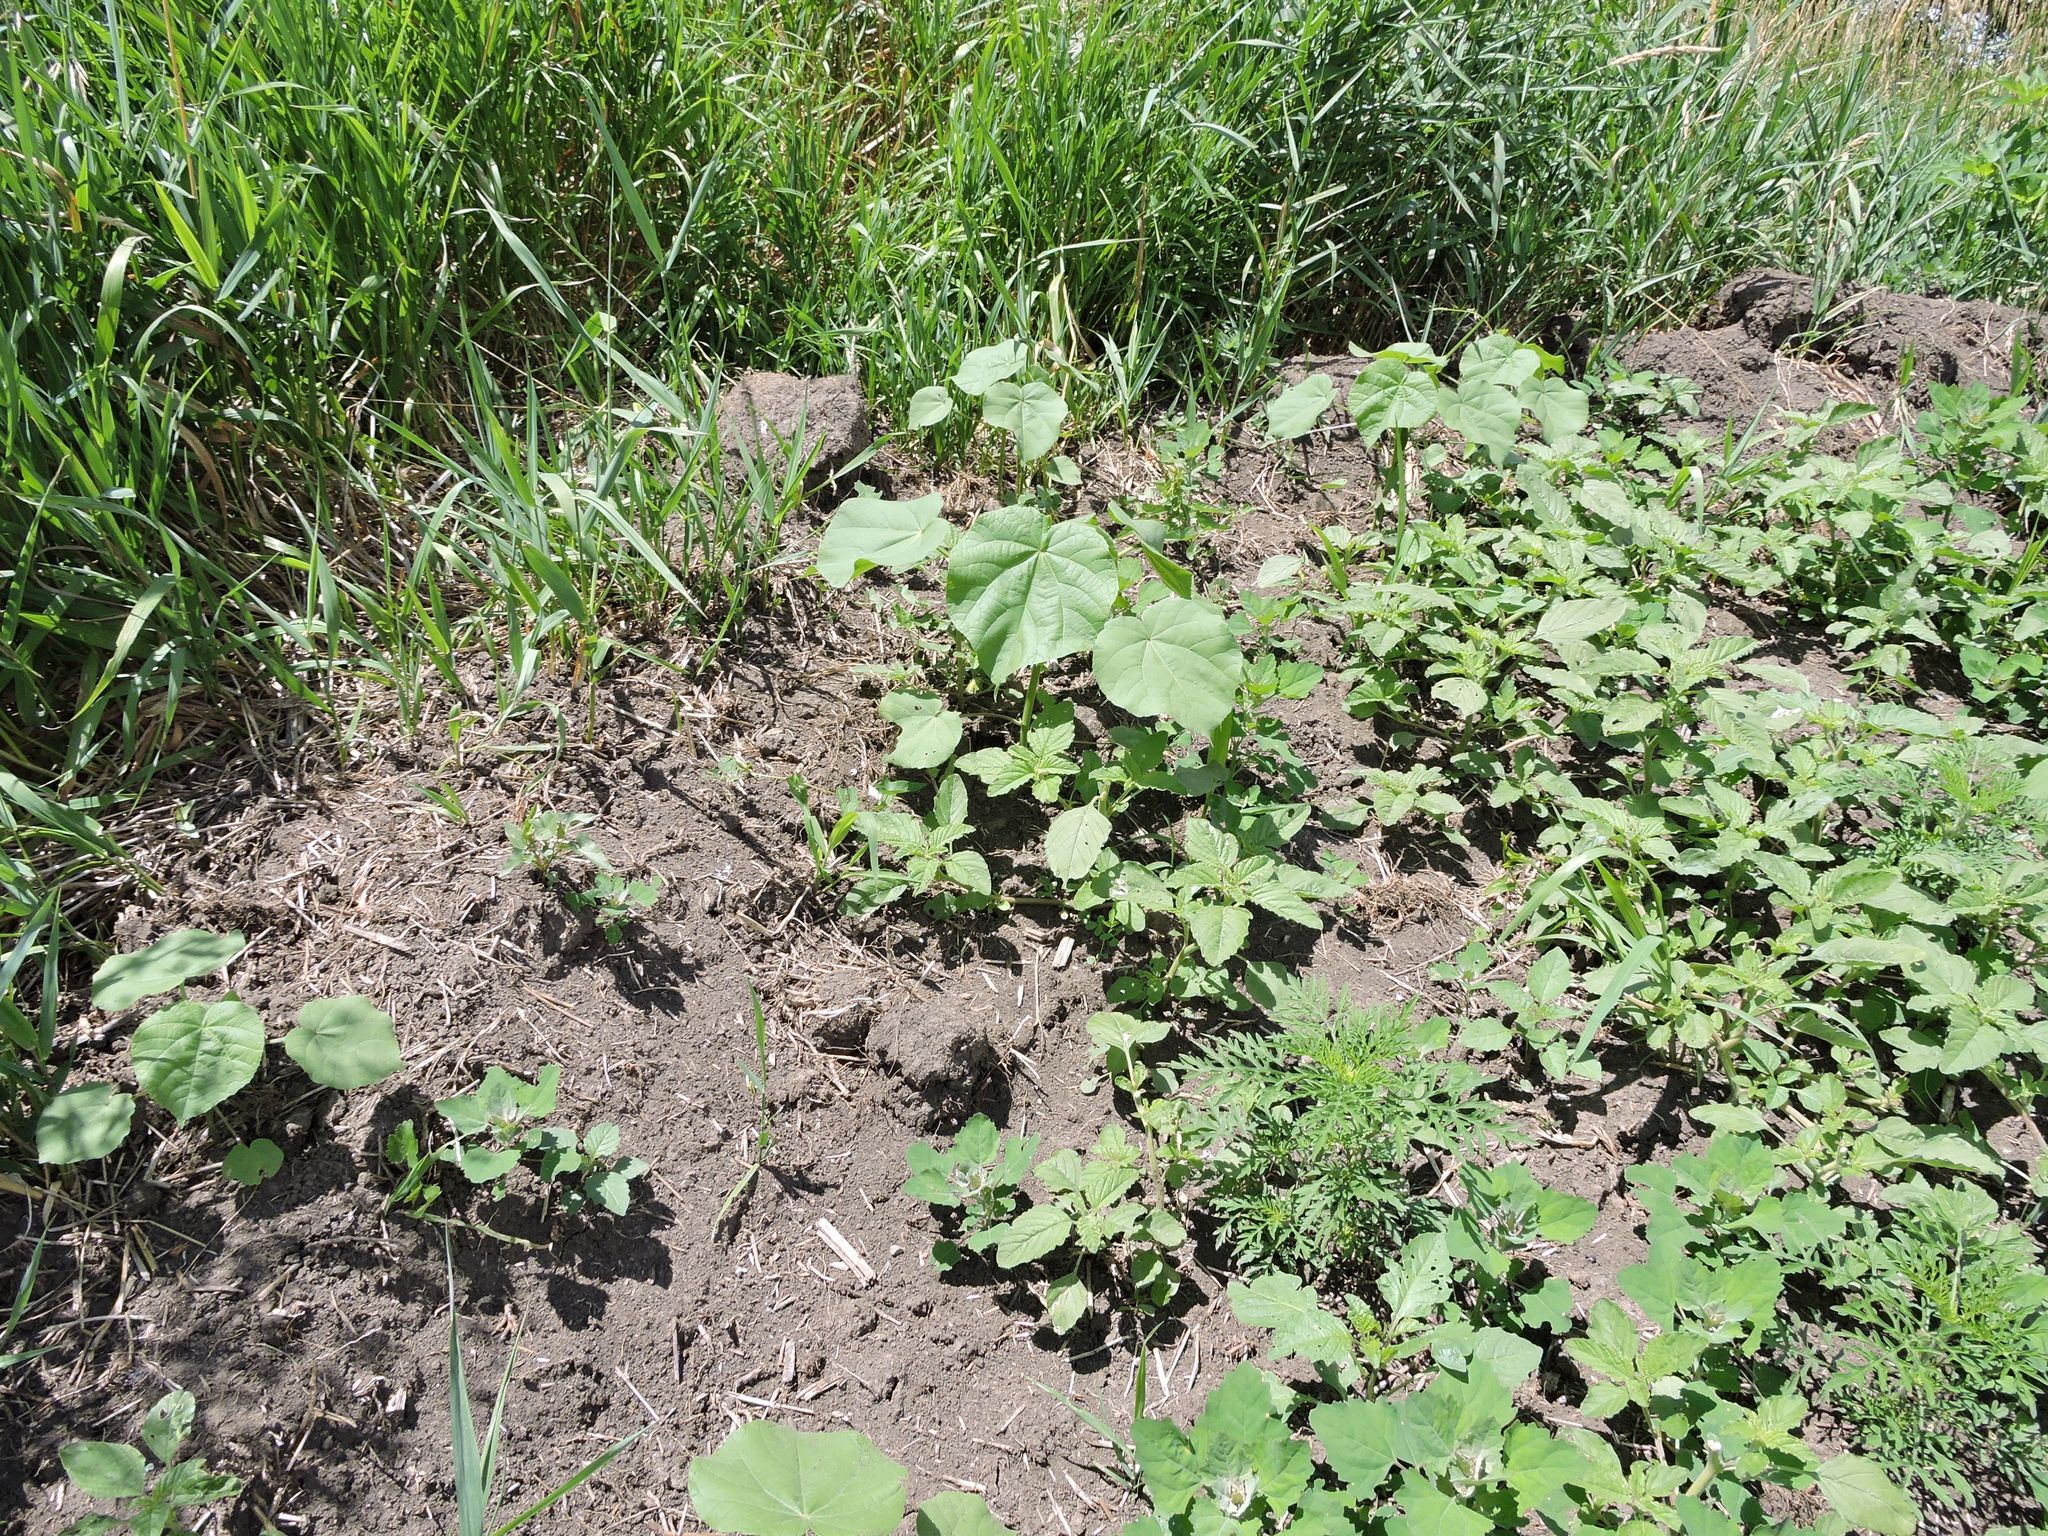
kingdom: Plantae
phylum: Tracheophyta
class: Magnoliopsida
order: Malvales
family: Malvaceae
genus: Abutilon
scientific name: Abutilon theophrasti
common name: Velvetleaf
